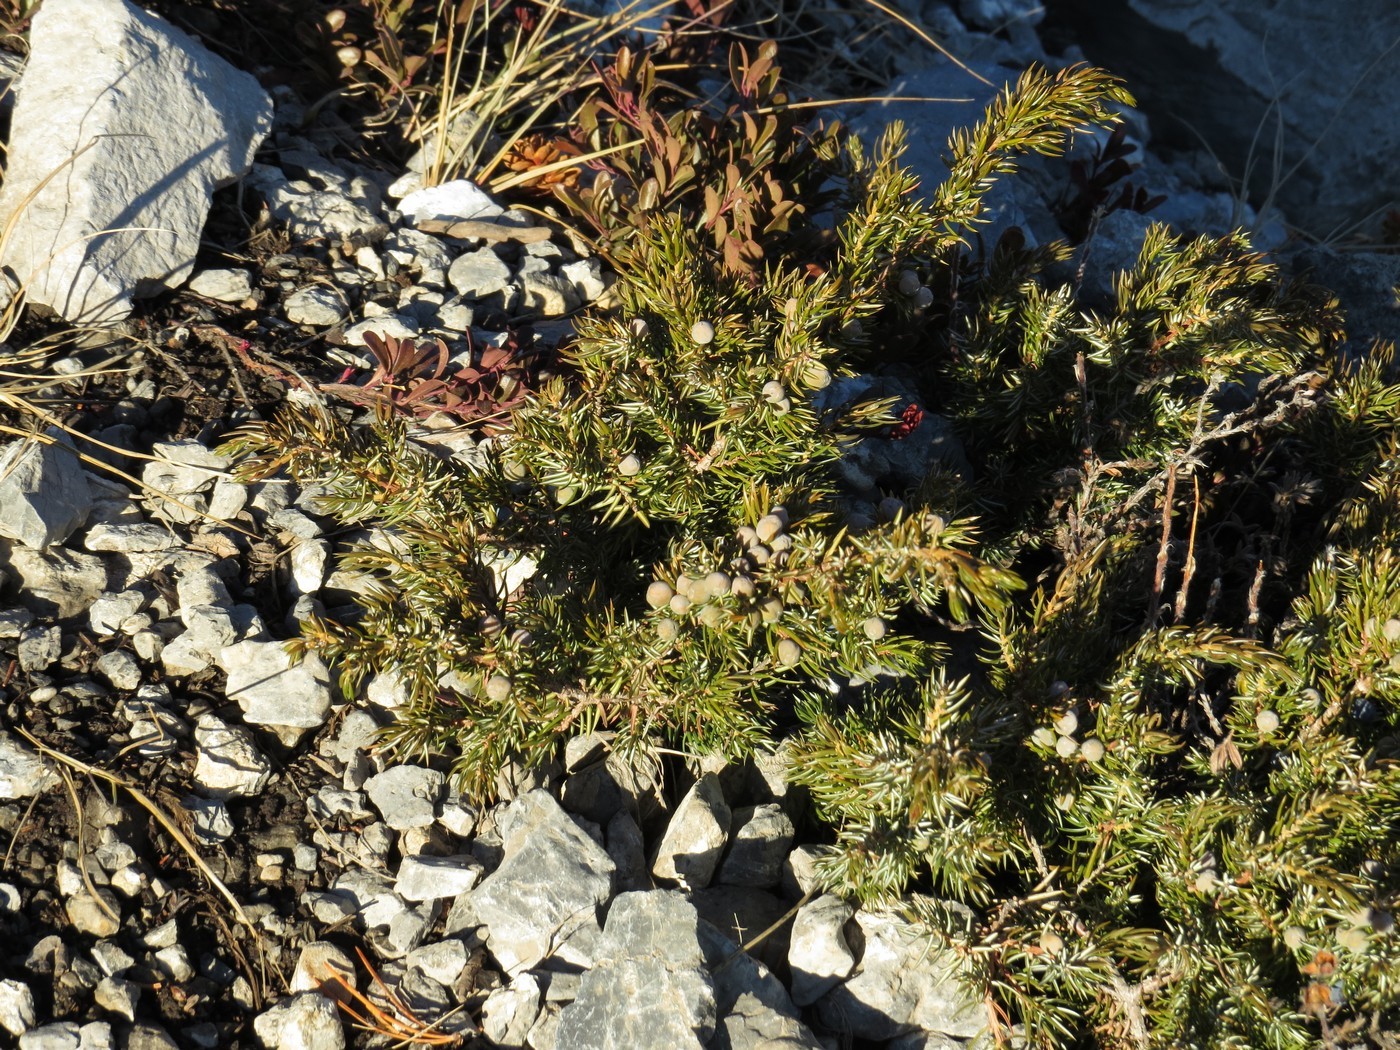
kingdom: Plantae
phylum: Tracheophyta
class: Pinopsida
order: Pinales
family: Cupressaceae
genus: Juniperus
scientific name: Juniperus communis
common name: Common juniper
